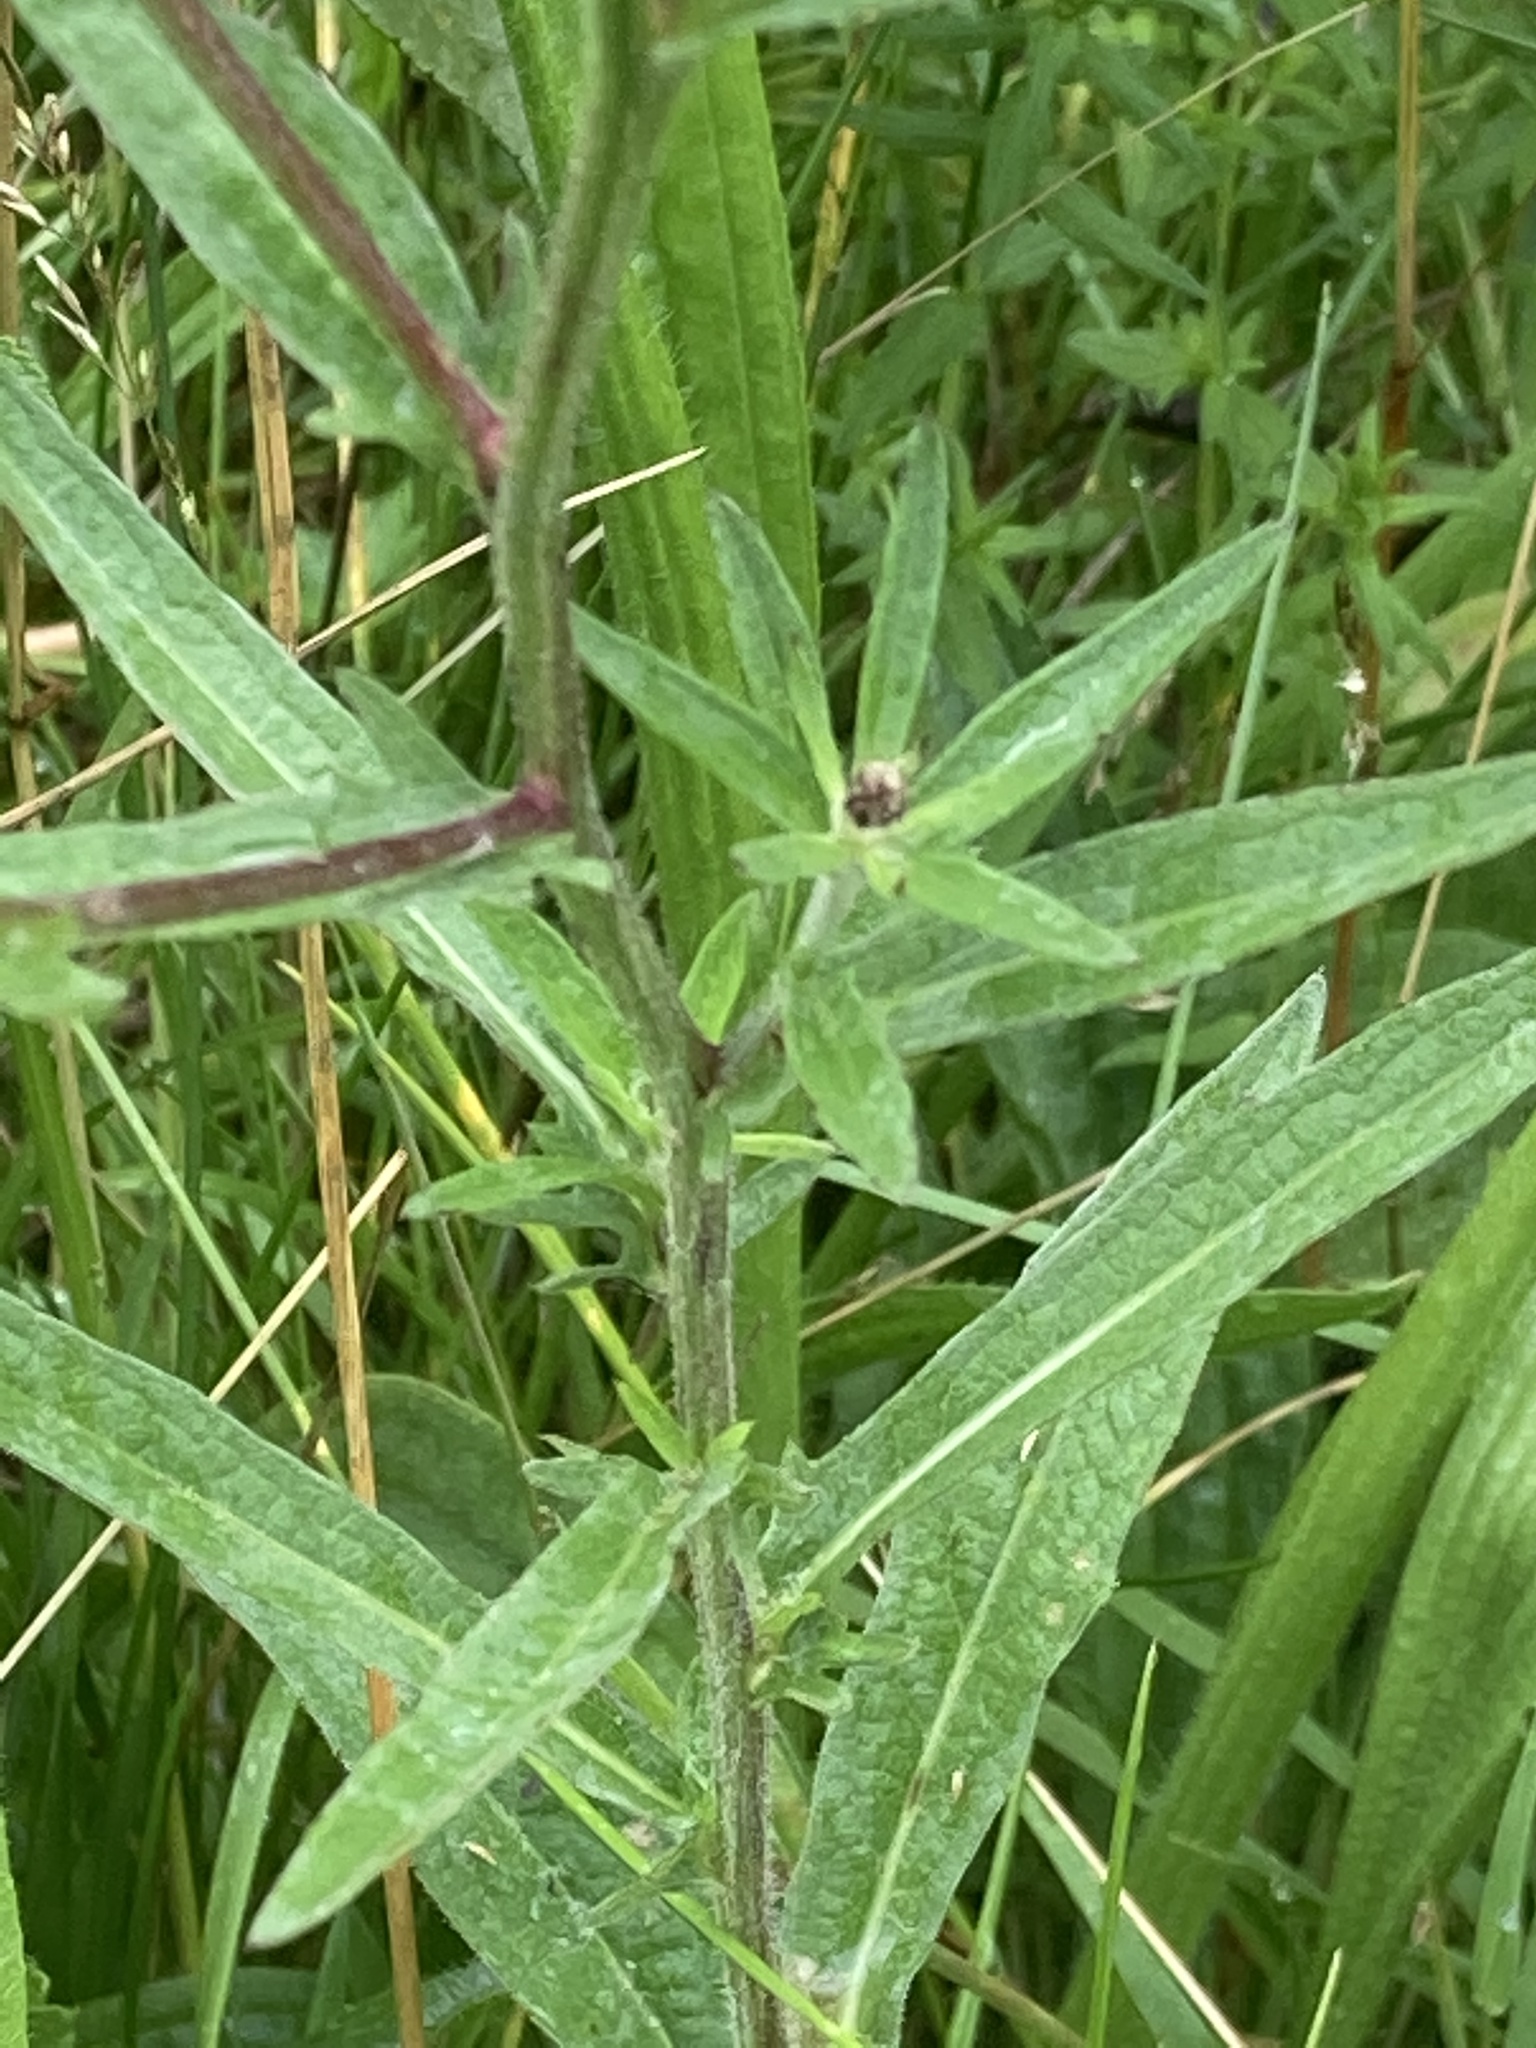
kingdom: Plantae
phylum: Tracheophyta
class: Magnoliopsida
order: Asterales
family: Asteraceae
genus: Centaurea
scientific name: Centaurea nigra
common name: Lesser knapweed
